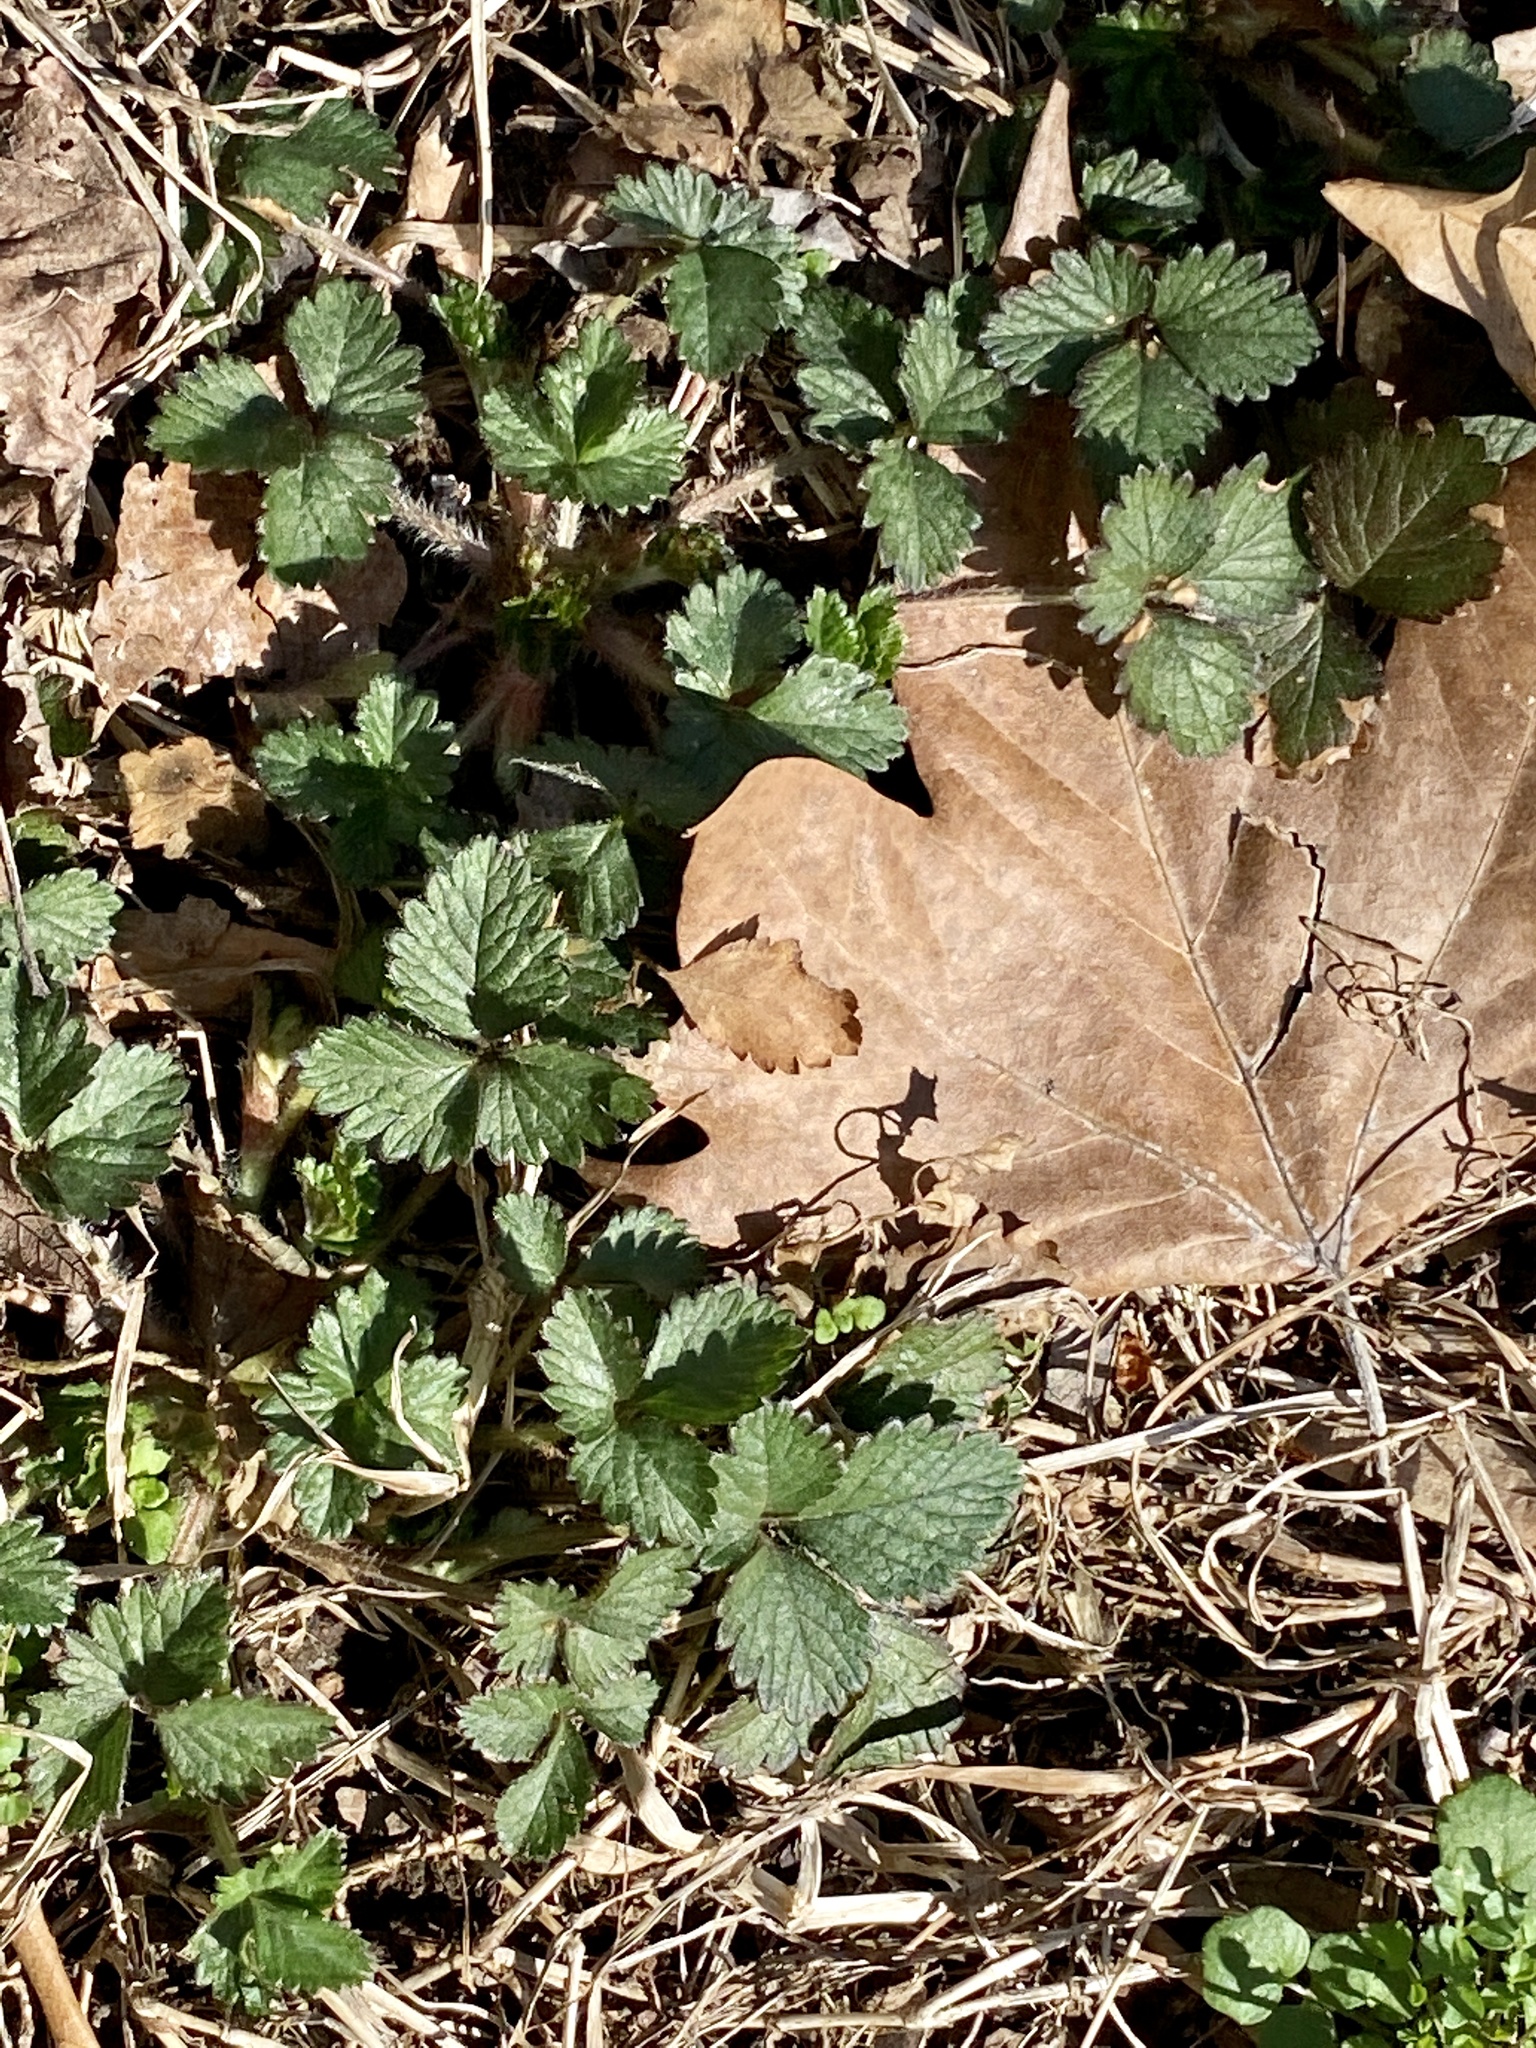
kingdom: Plantae
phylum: Tracheophyta
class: Magnoliopsida
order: Rosales
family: Rosaceae
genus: Potentilla
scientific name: Potentilla indica
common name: Yellow-flowered strawberry
